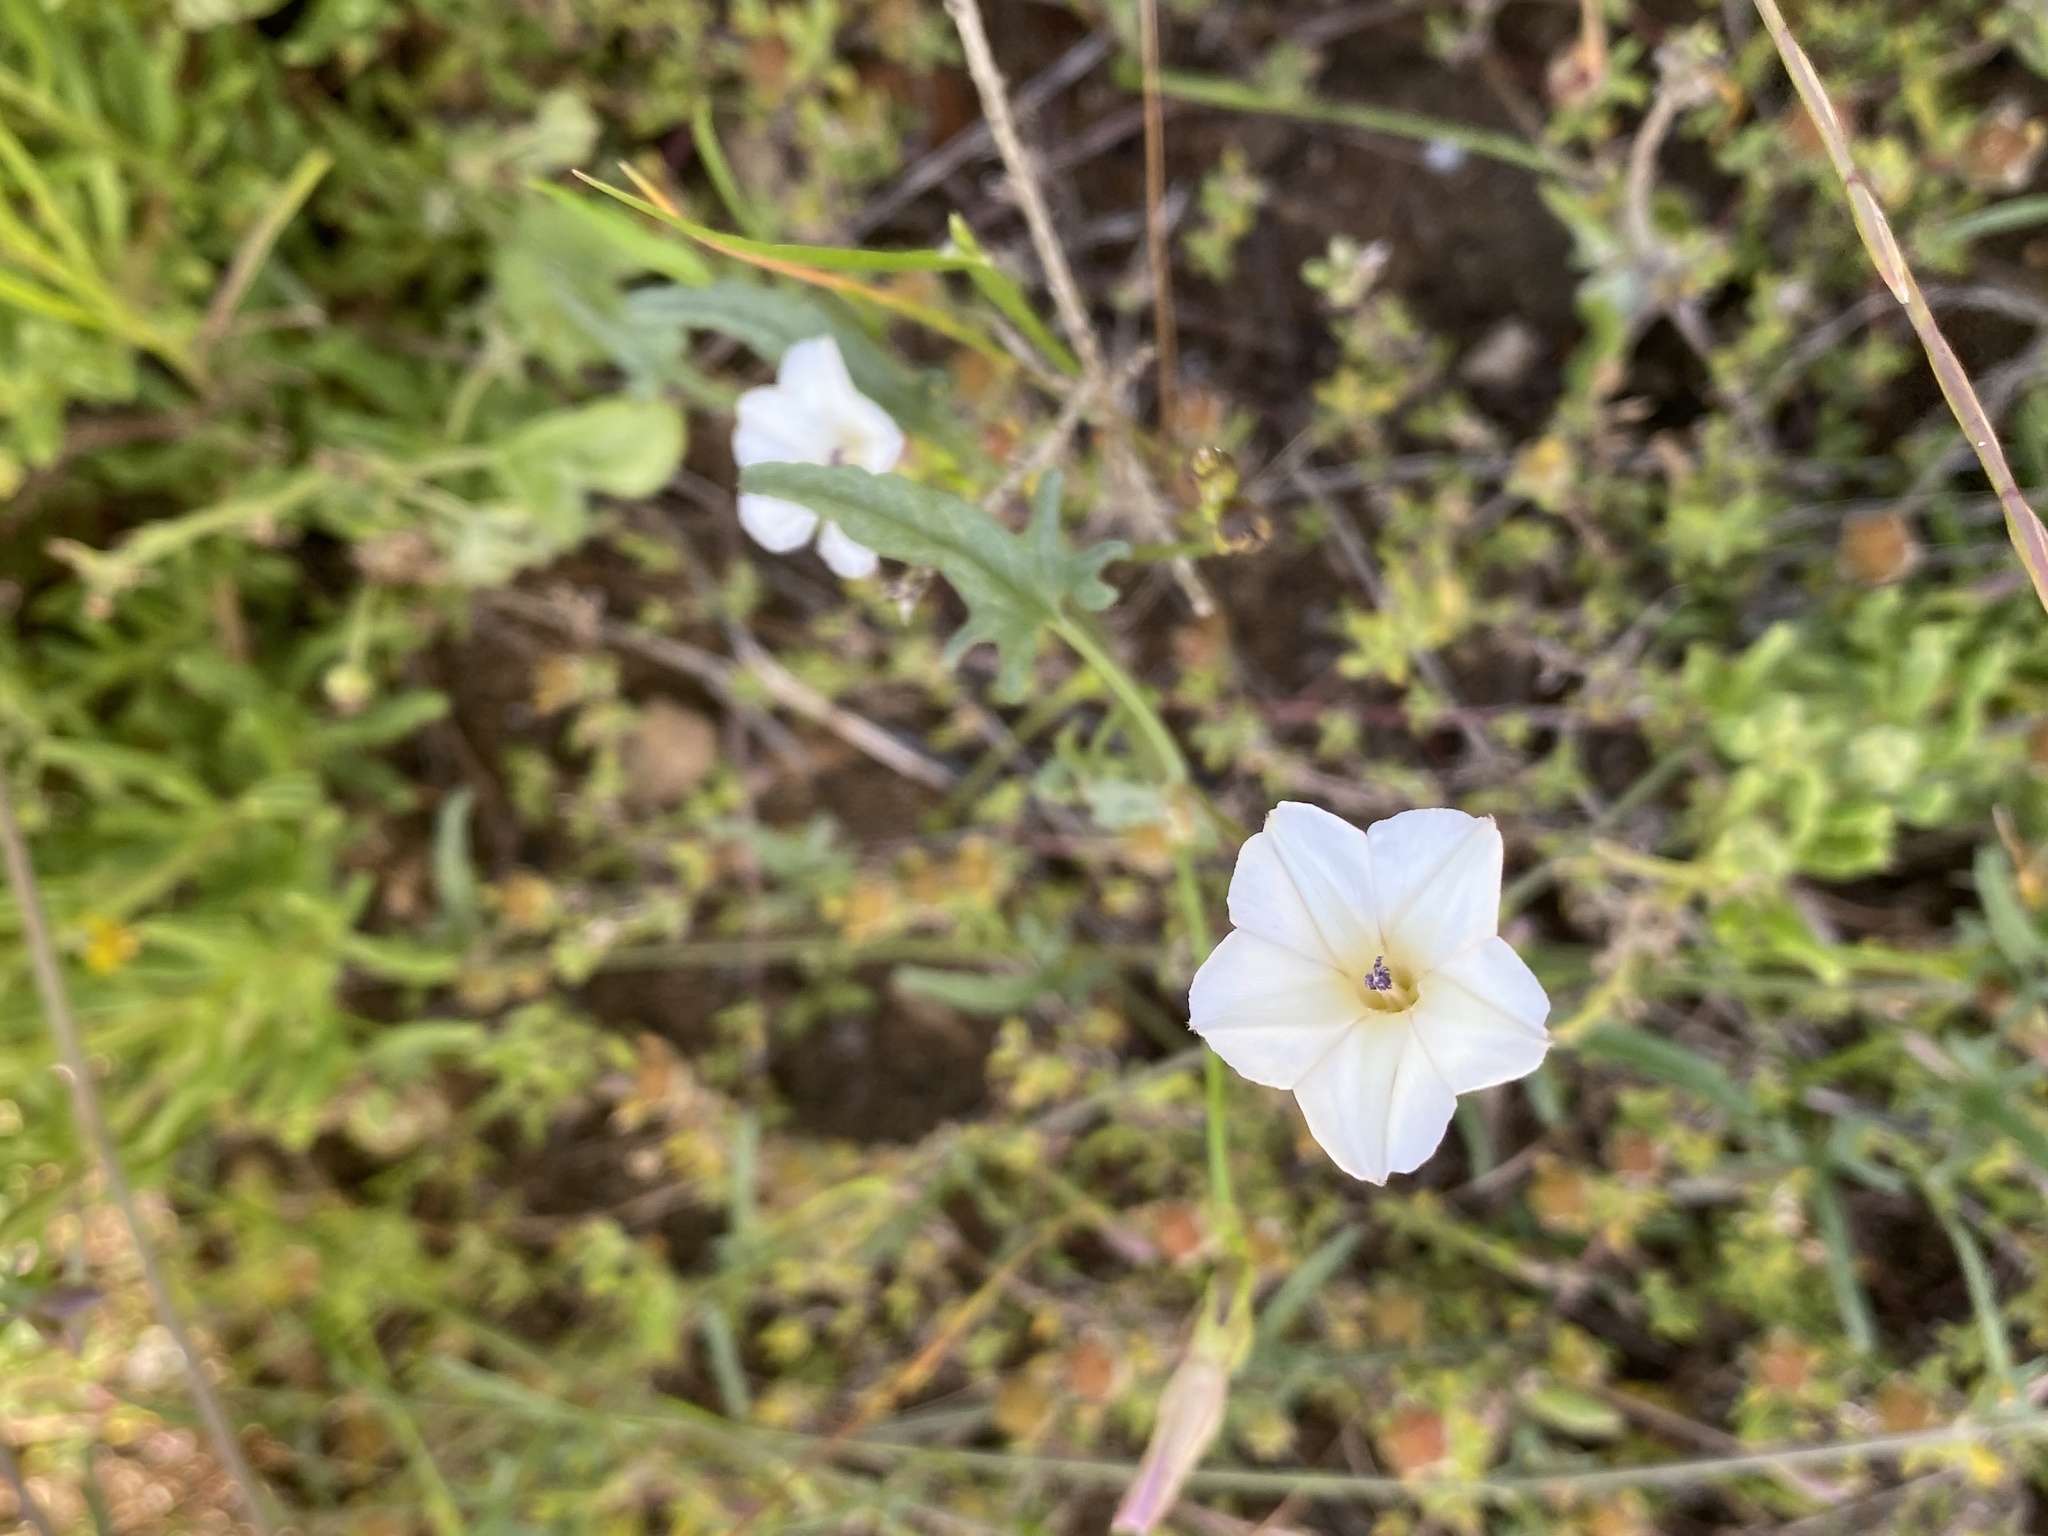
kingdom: Plantae
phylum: Tracheophyta
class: Magnoliopsida
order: Solanales
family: Convolvulaceae
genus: Convolvulus
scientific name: Convolvulus sagittatus
